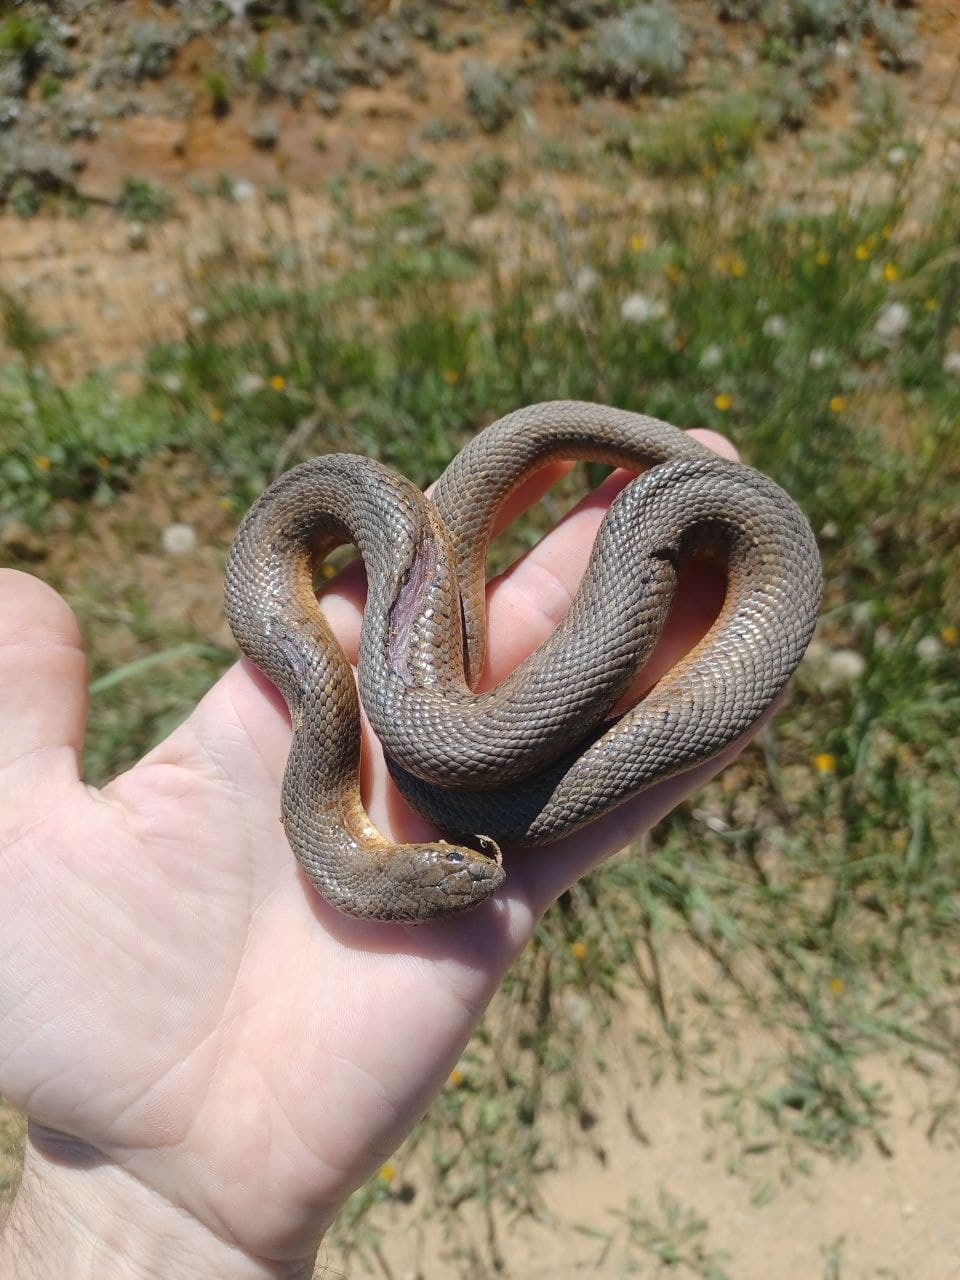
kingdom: Animalia
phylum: Chordata
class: Squamata
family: Pseudaspididae
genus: Pseudaspis
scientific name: Pseudaspis cana
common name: Mole snake
